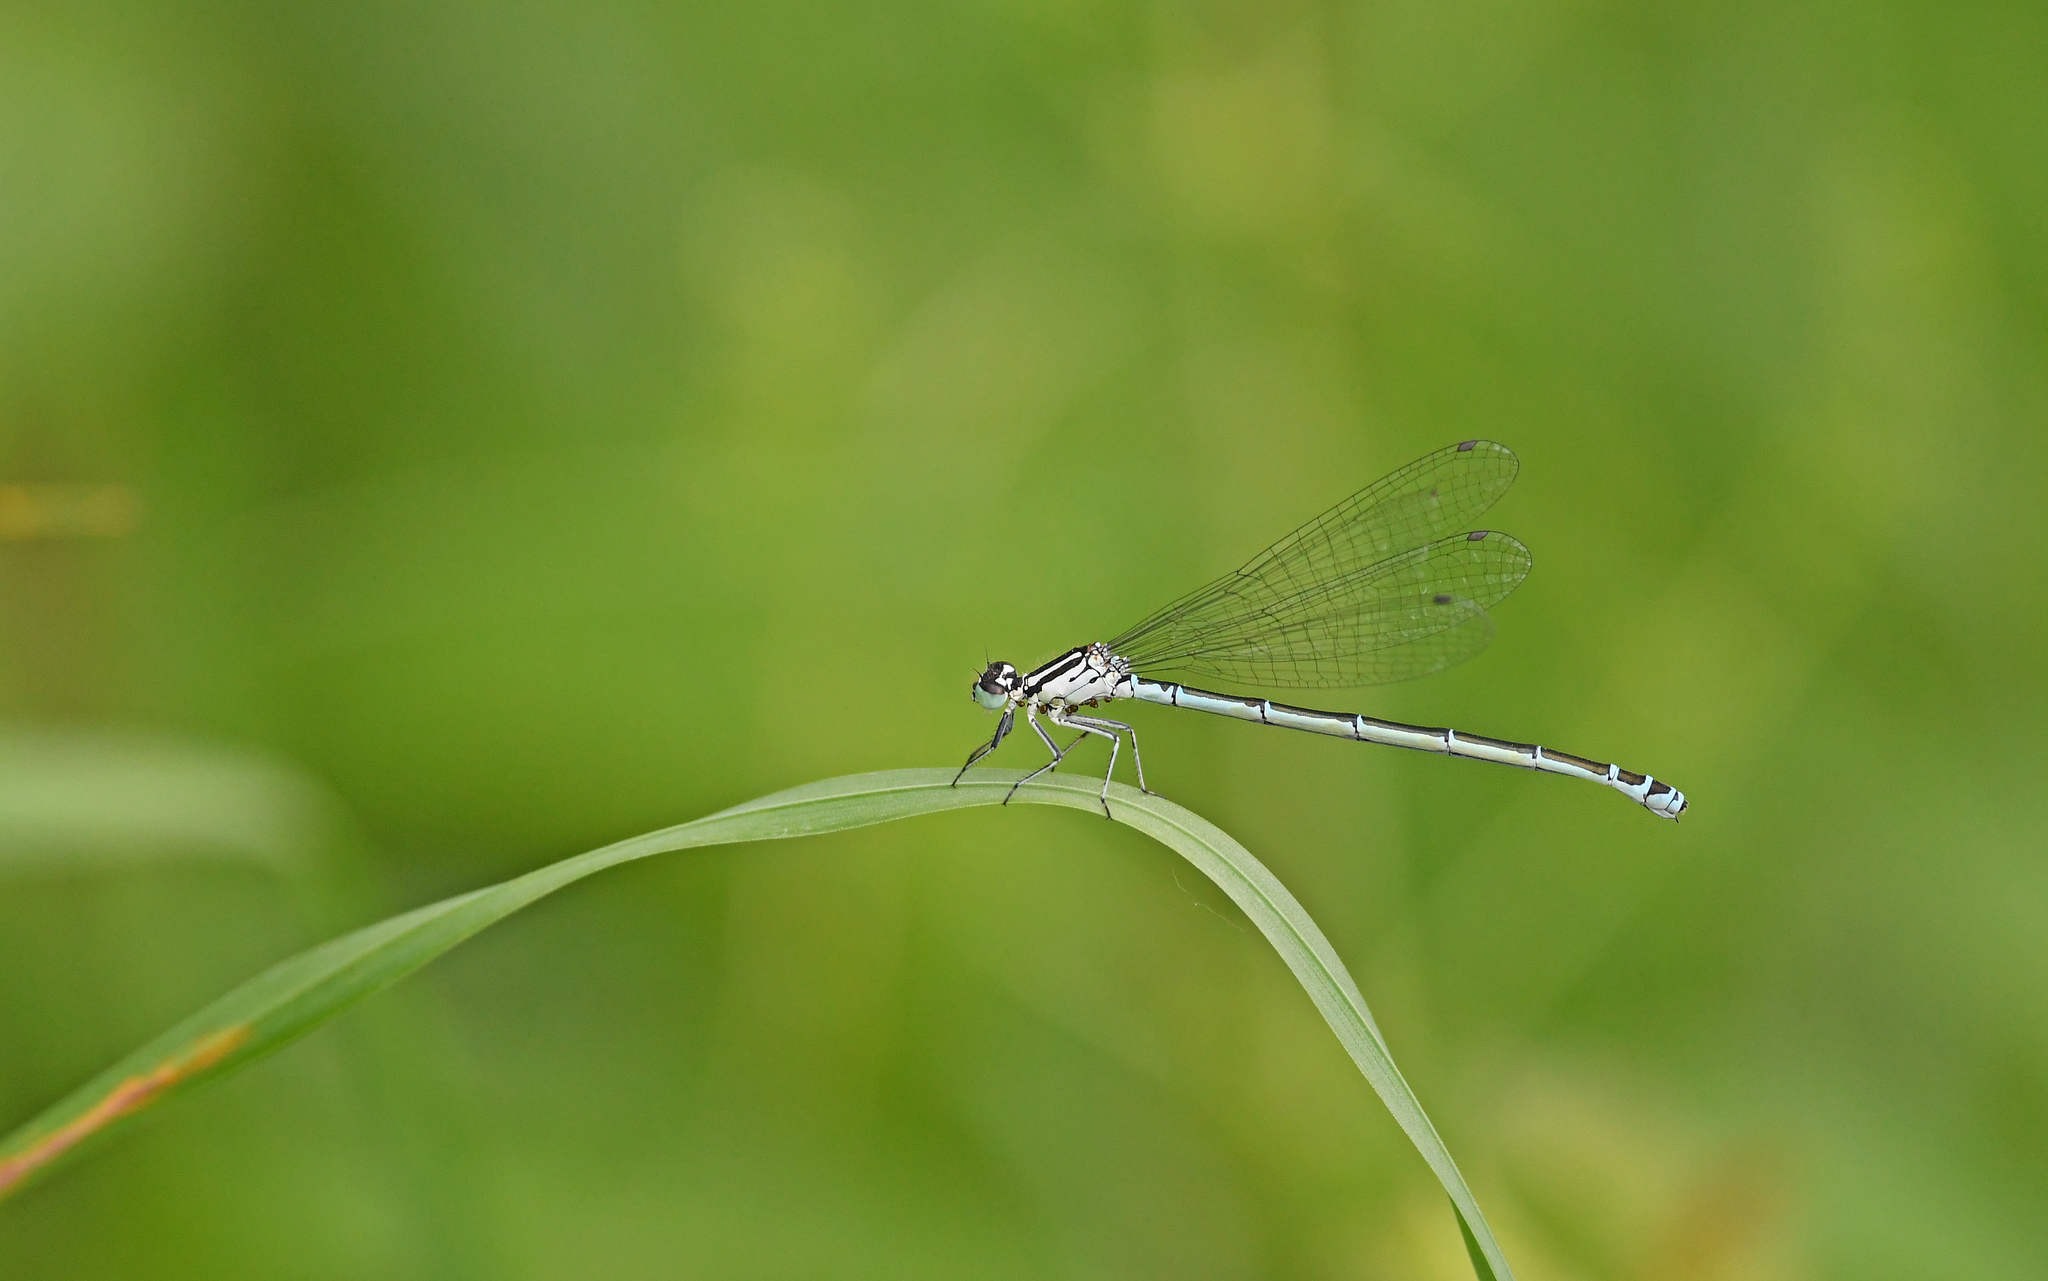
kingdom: Animalia
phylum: Arthropoda
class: Insecta
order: Odonata
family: Coenagrionidae
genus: Coenagrion
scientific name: Coenagrion puella
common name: Azure damselfly
